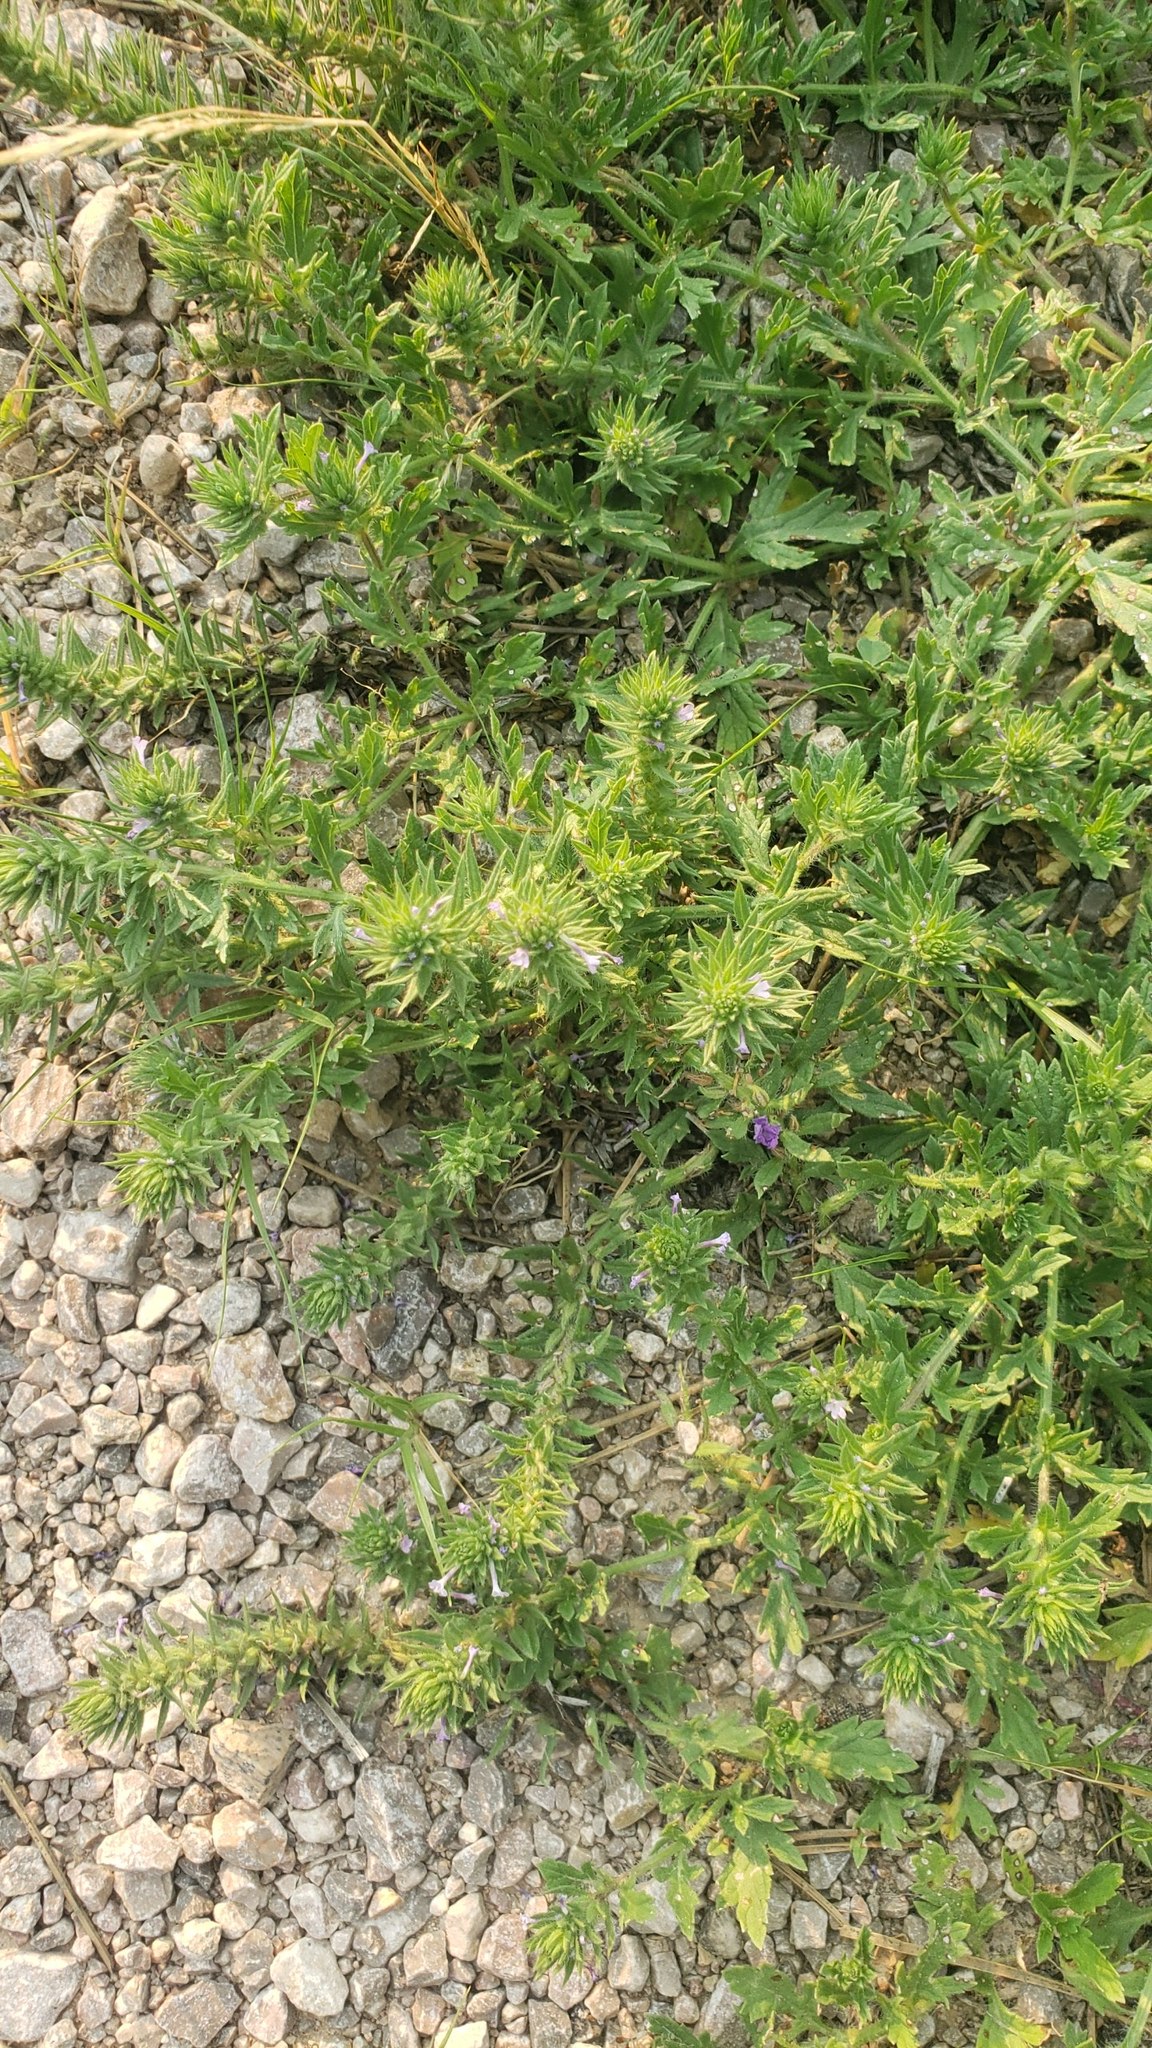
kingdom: Plantae
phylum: Tracheophyta
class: Magnoliopsida
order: Lamiales
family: Verbenaceae
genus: Verbena
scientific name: Verbena bracteata
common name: Bracted vervain
